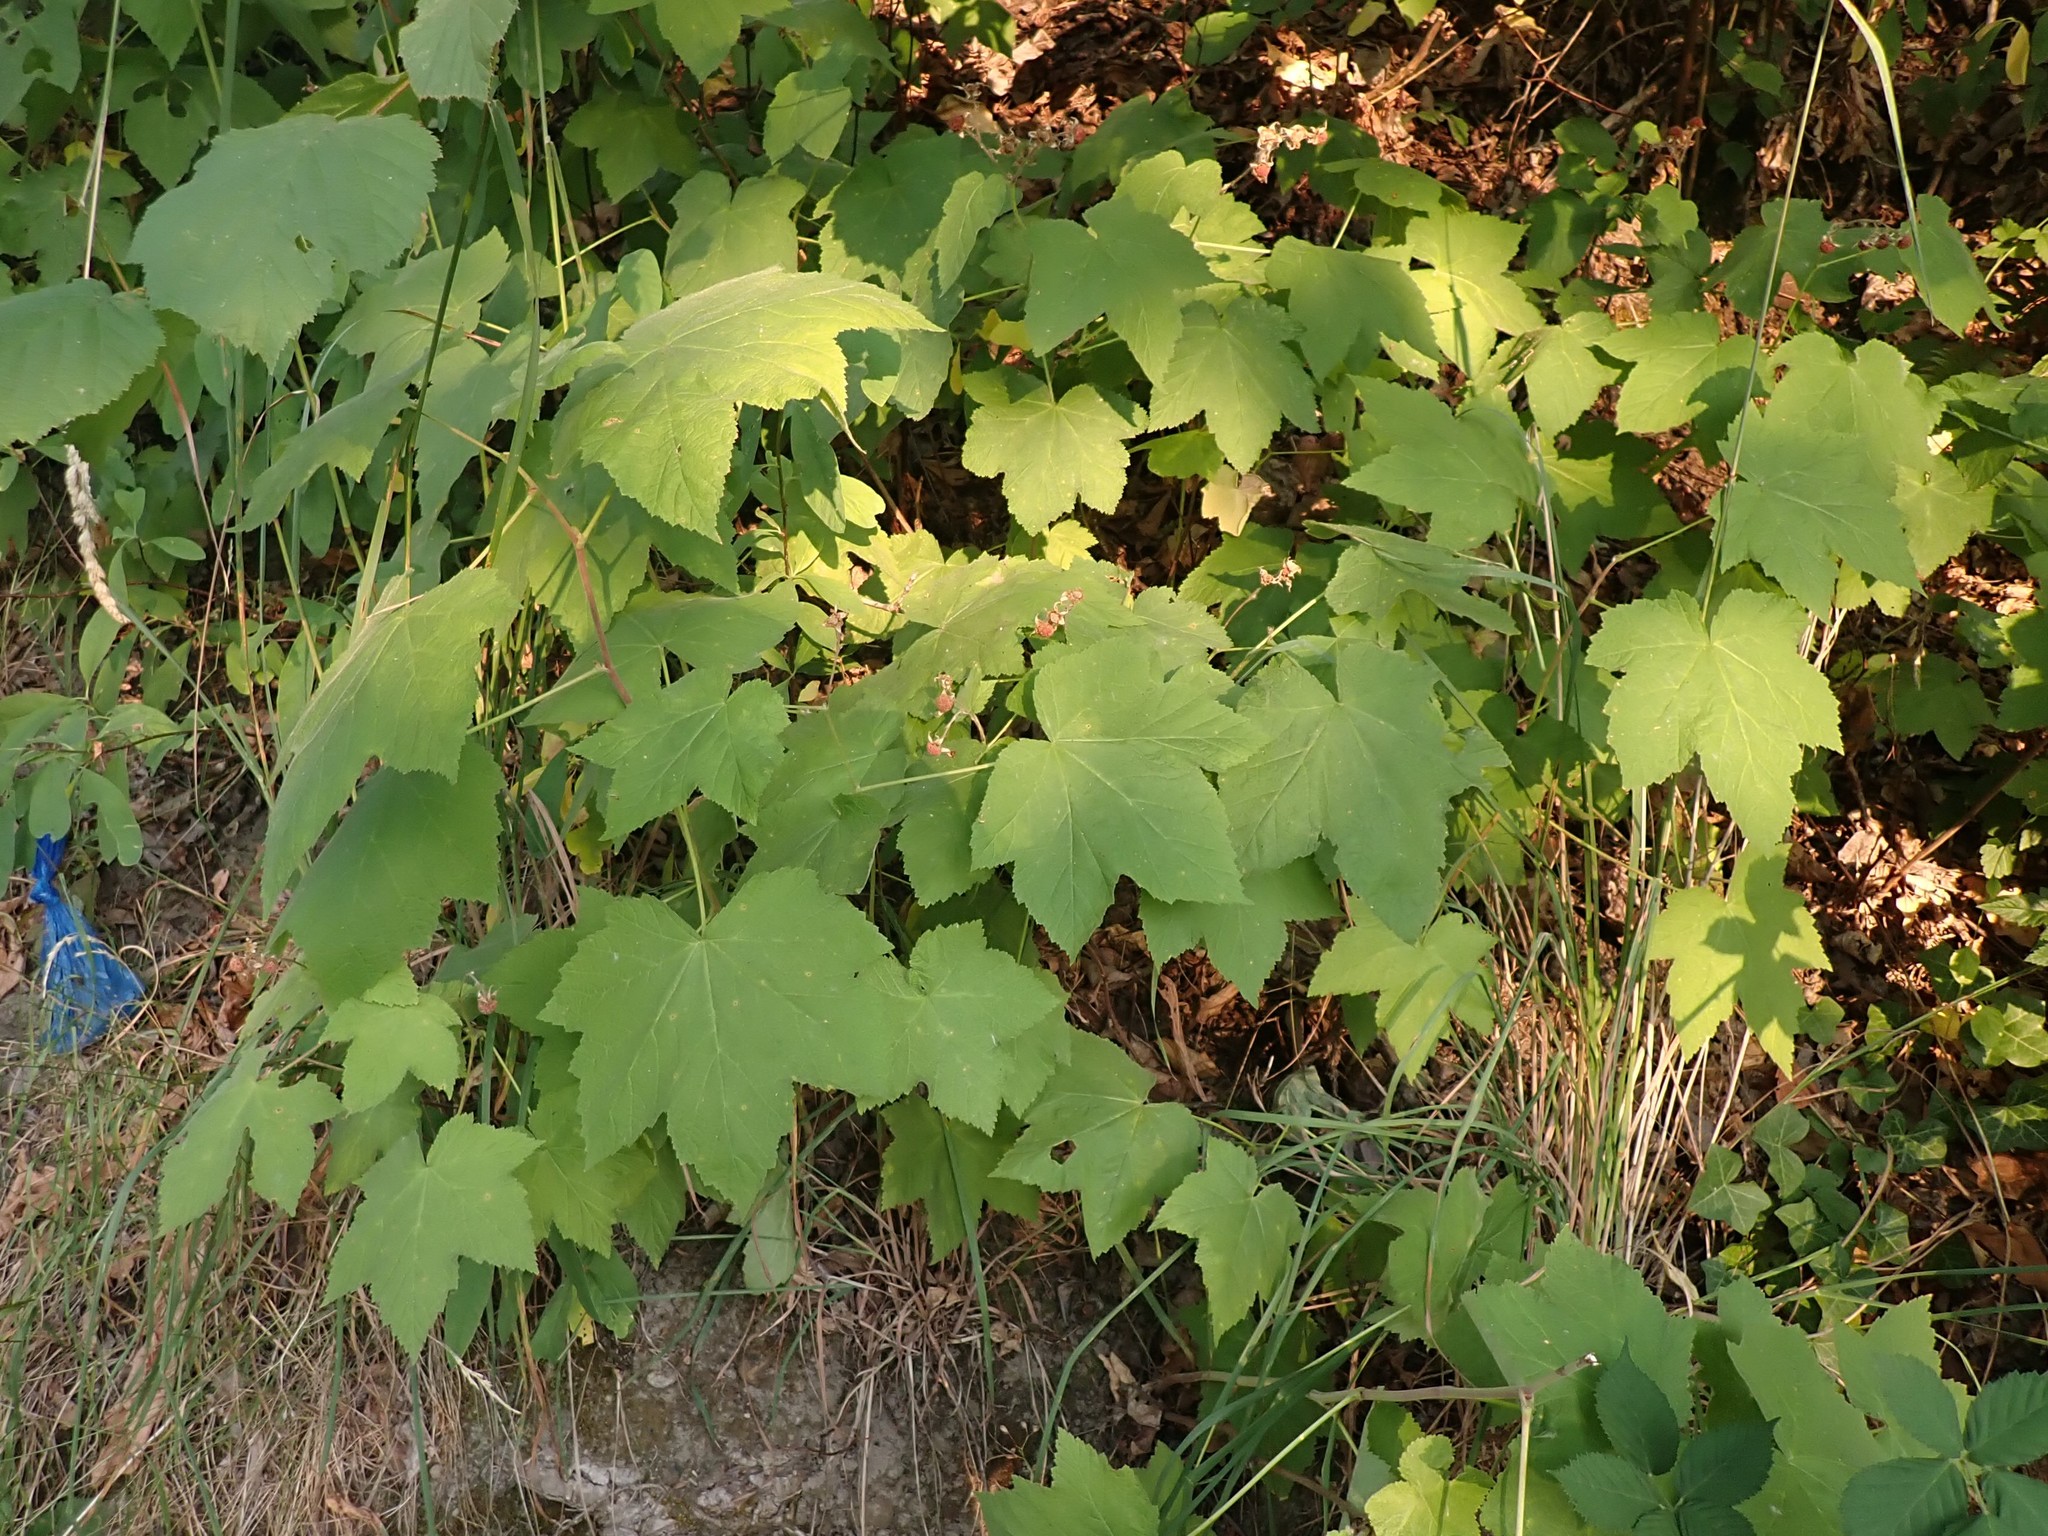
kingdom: Plantae
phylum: Tracheophyta
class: Magnoliopsida
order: Rosales
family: Rosaceae
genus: Rubus
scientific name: Rubus parviflorus
